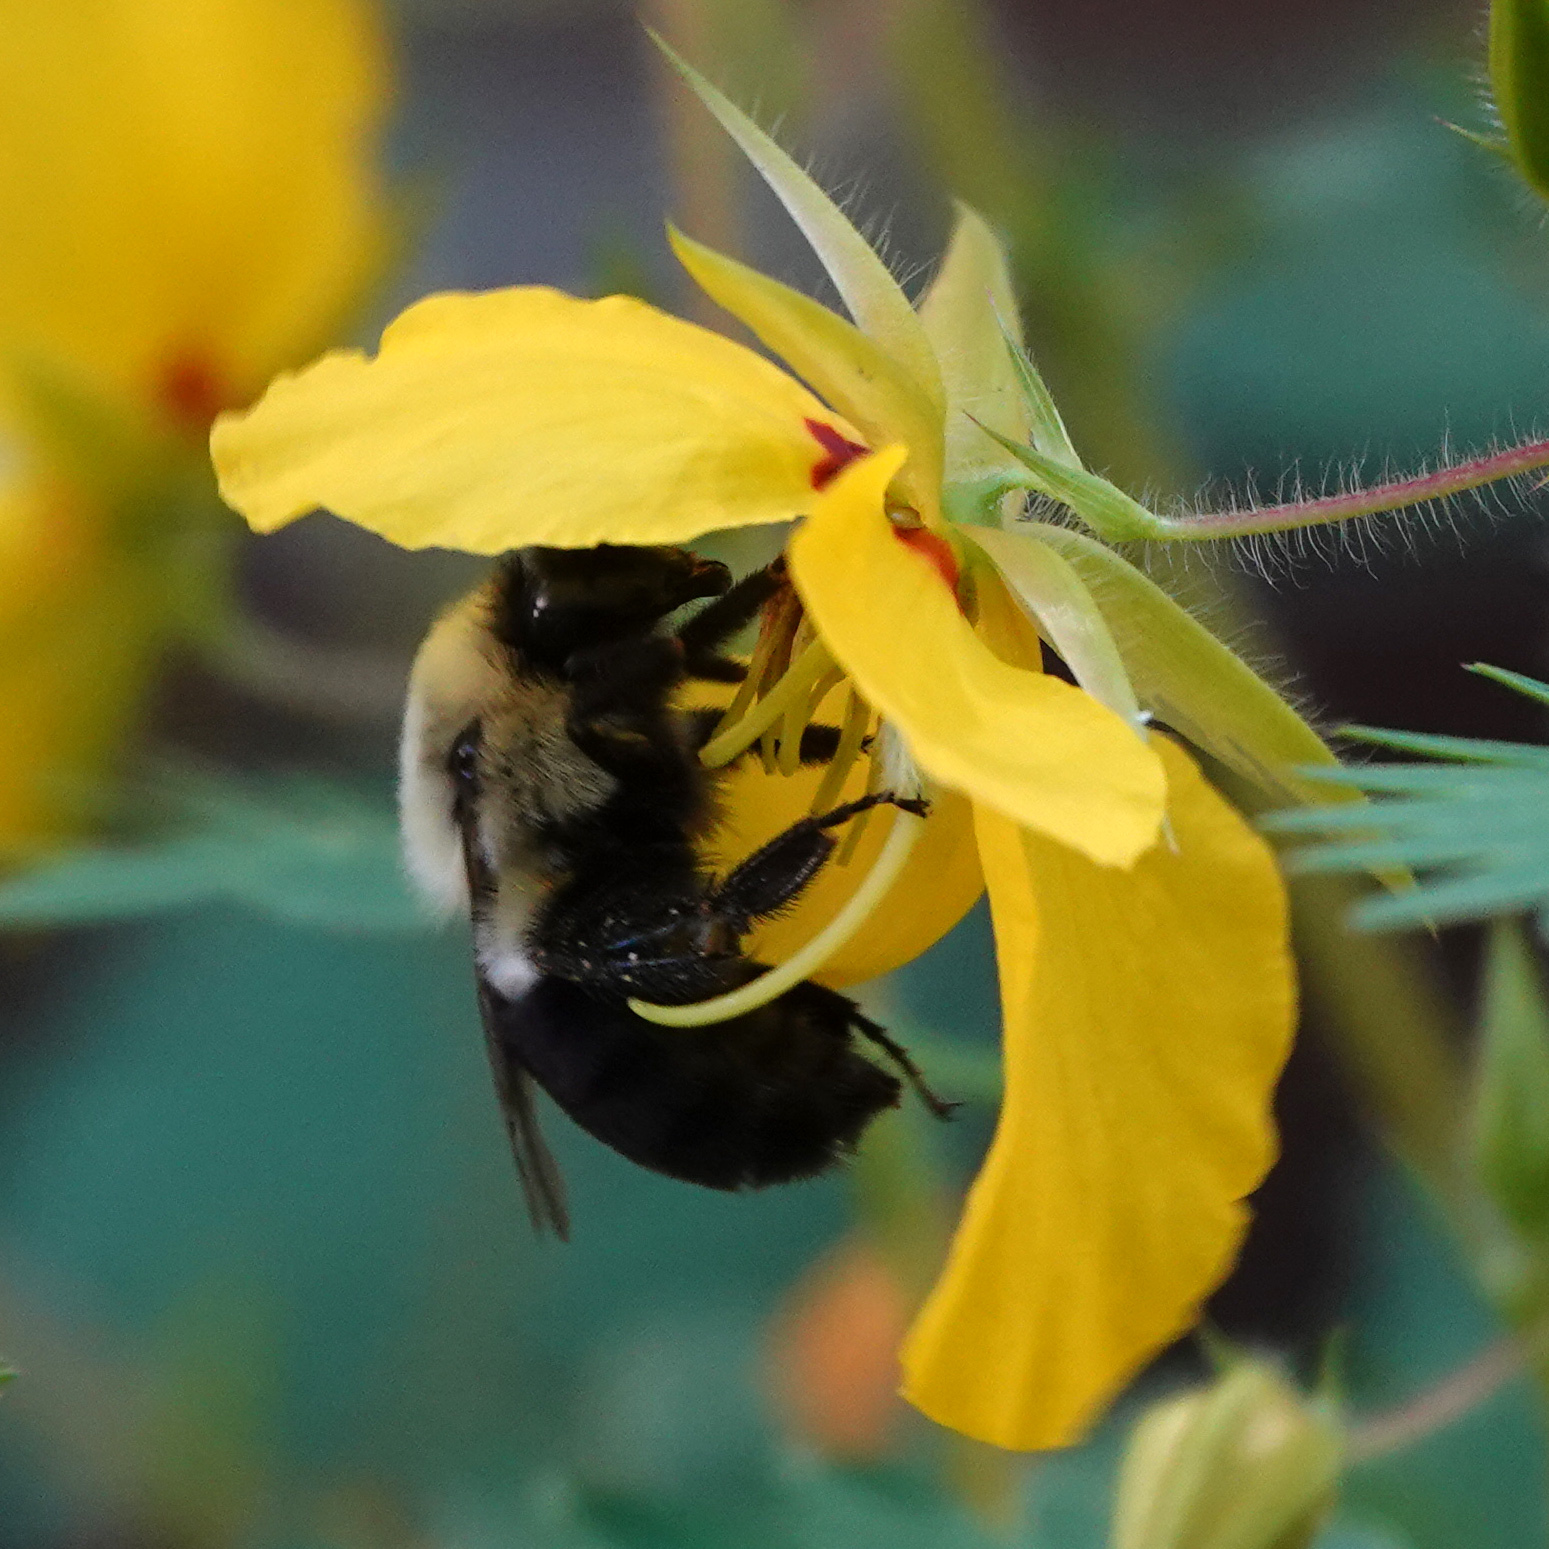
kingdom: Animalia
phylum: Arthropoda
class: Insecta
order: Hymenoptera
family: Apidae
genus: Bombus
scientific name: Bombus impatiens
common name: Common eastern bumble bee
